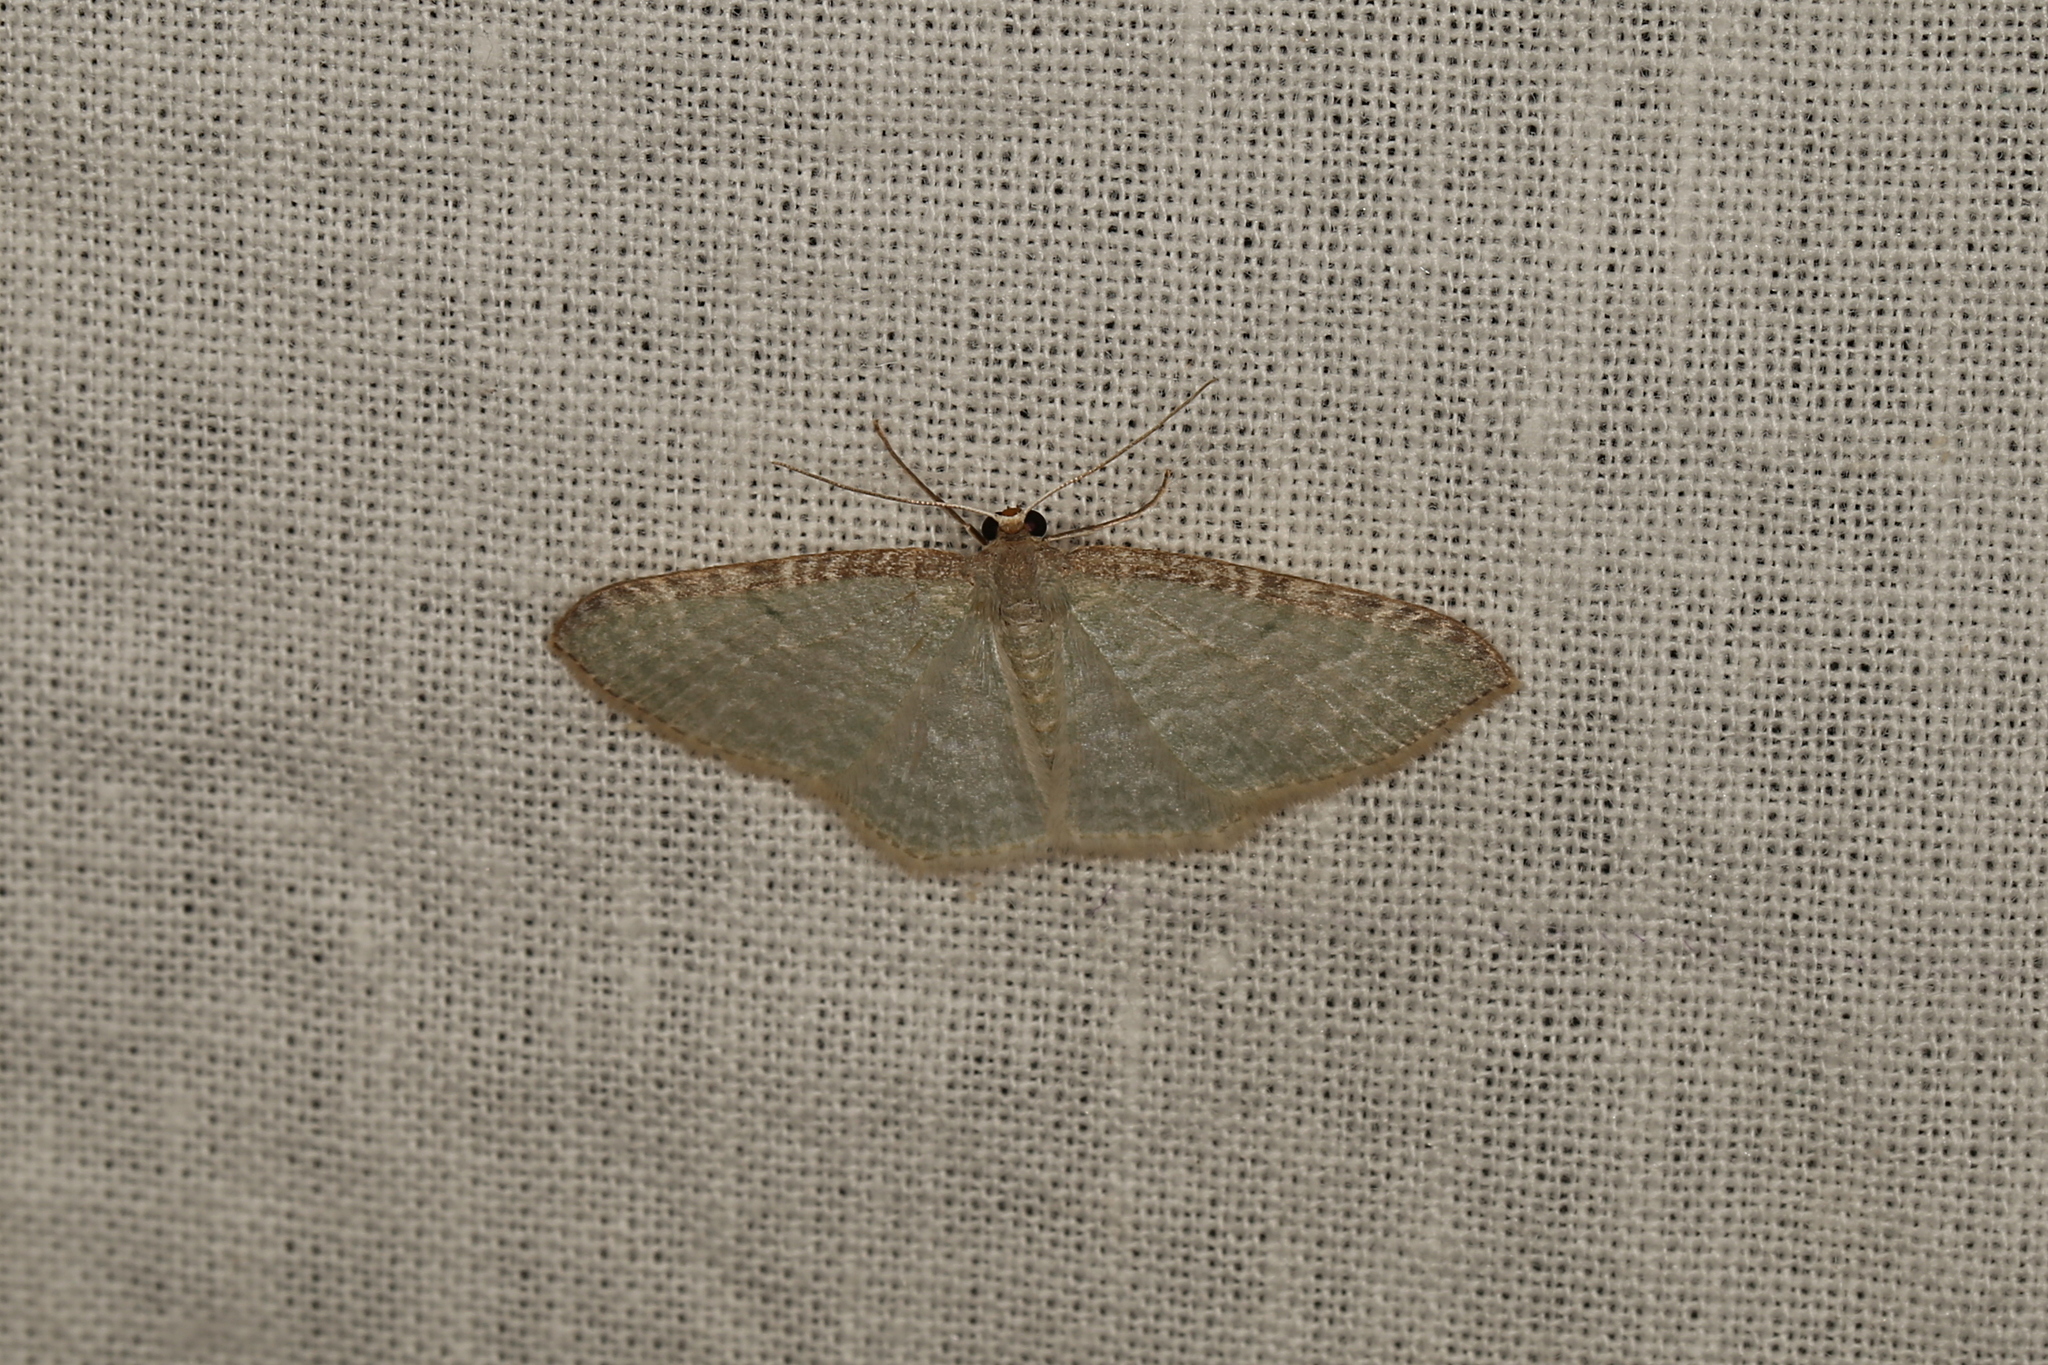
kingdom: Animalia
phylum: Arthropoda
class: Insecta
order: Lepidoptera
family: Geometridae
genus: Poecilasthena
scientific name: Poecilasthena pulchraria
